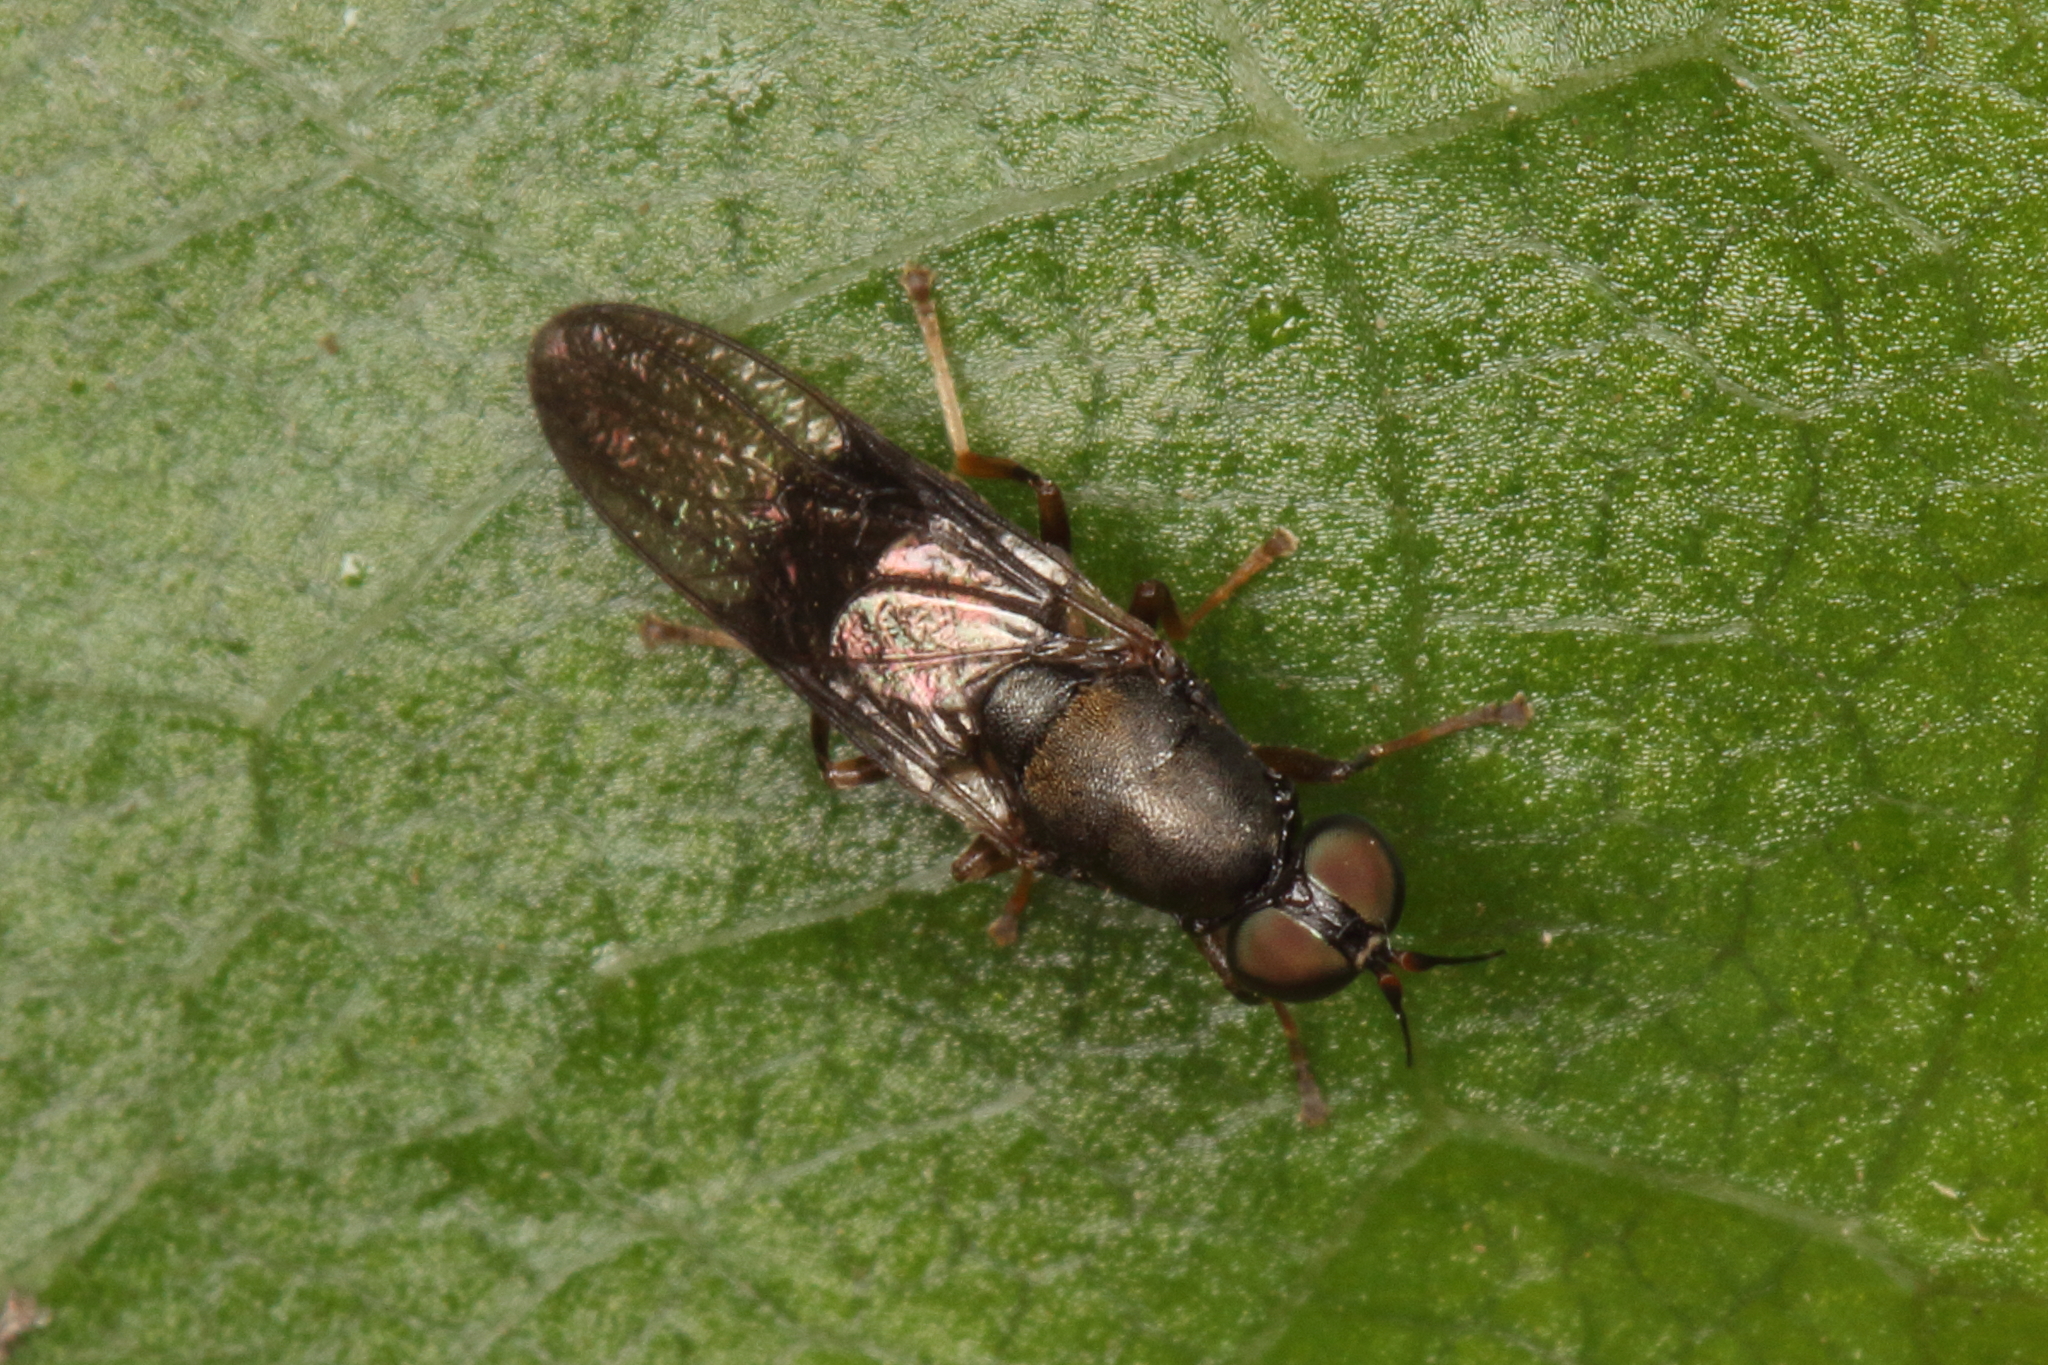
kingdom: Animalia
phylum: Arthropoda
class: Insecta
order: Diptera
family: Stratiomyidae
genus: Dysbiota
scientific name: Dysbiota peregrina
